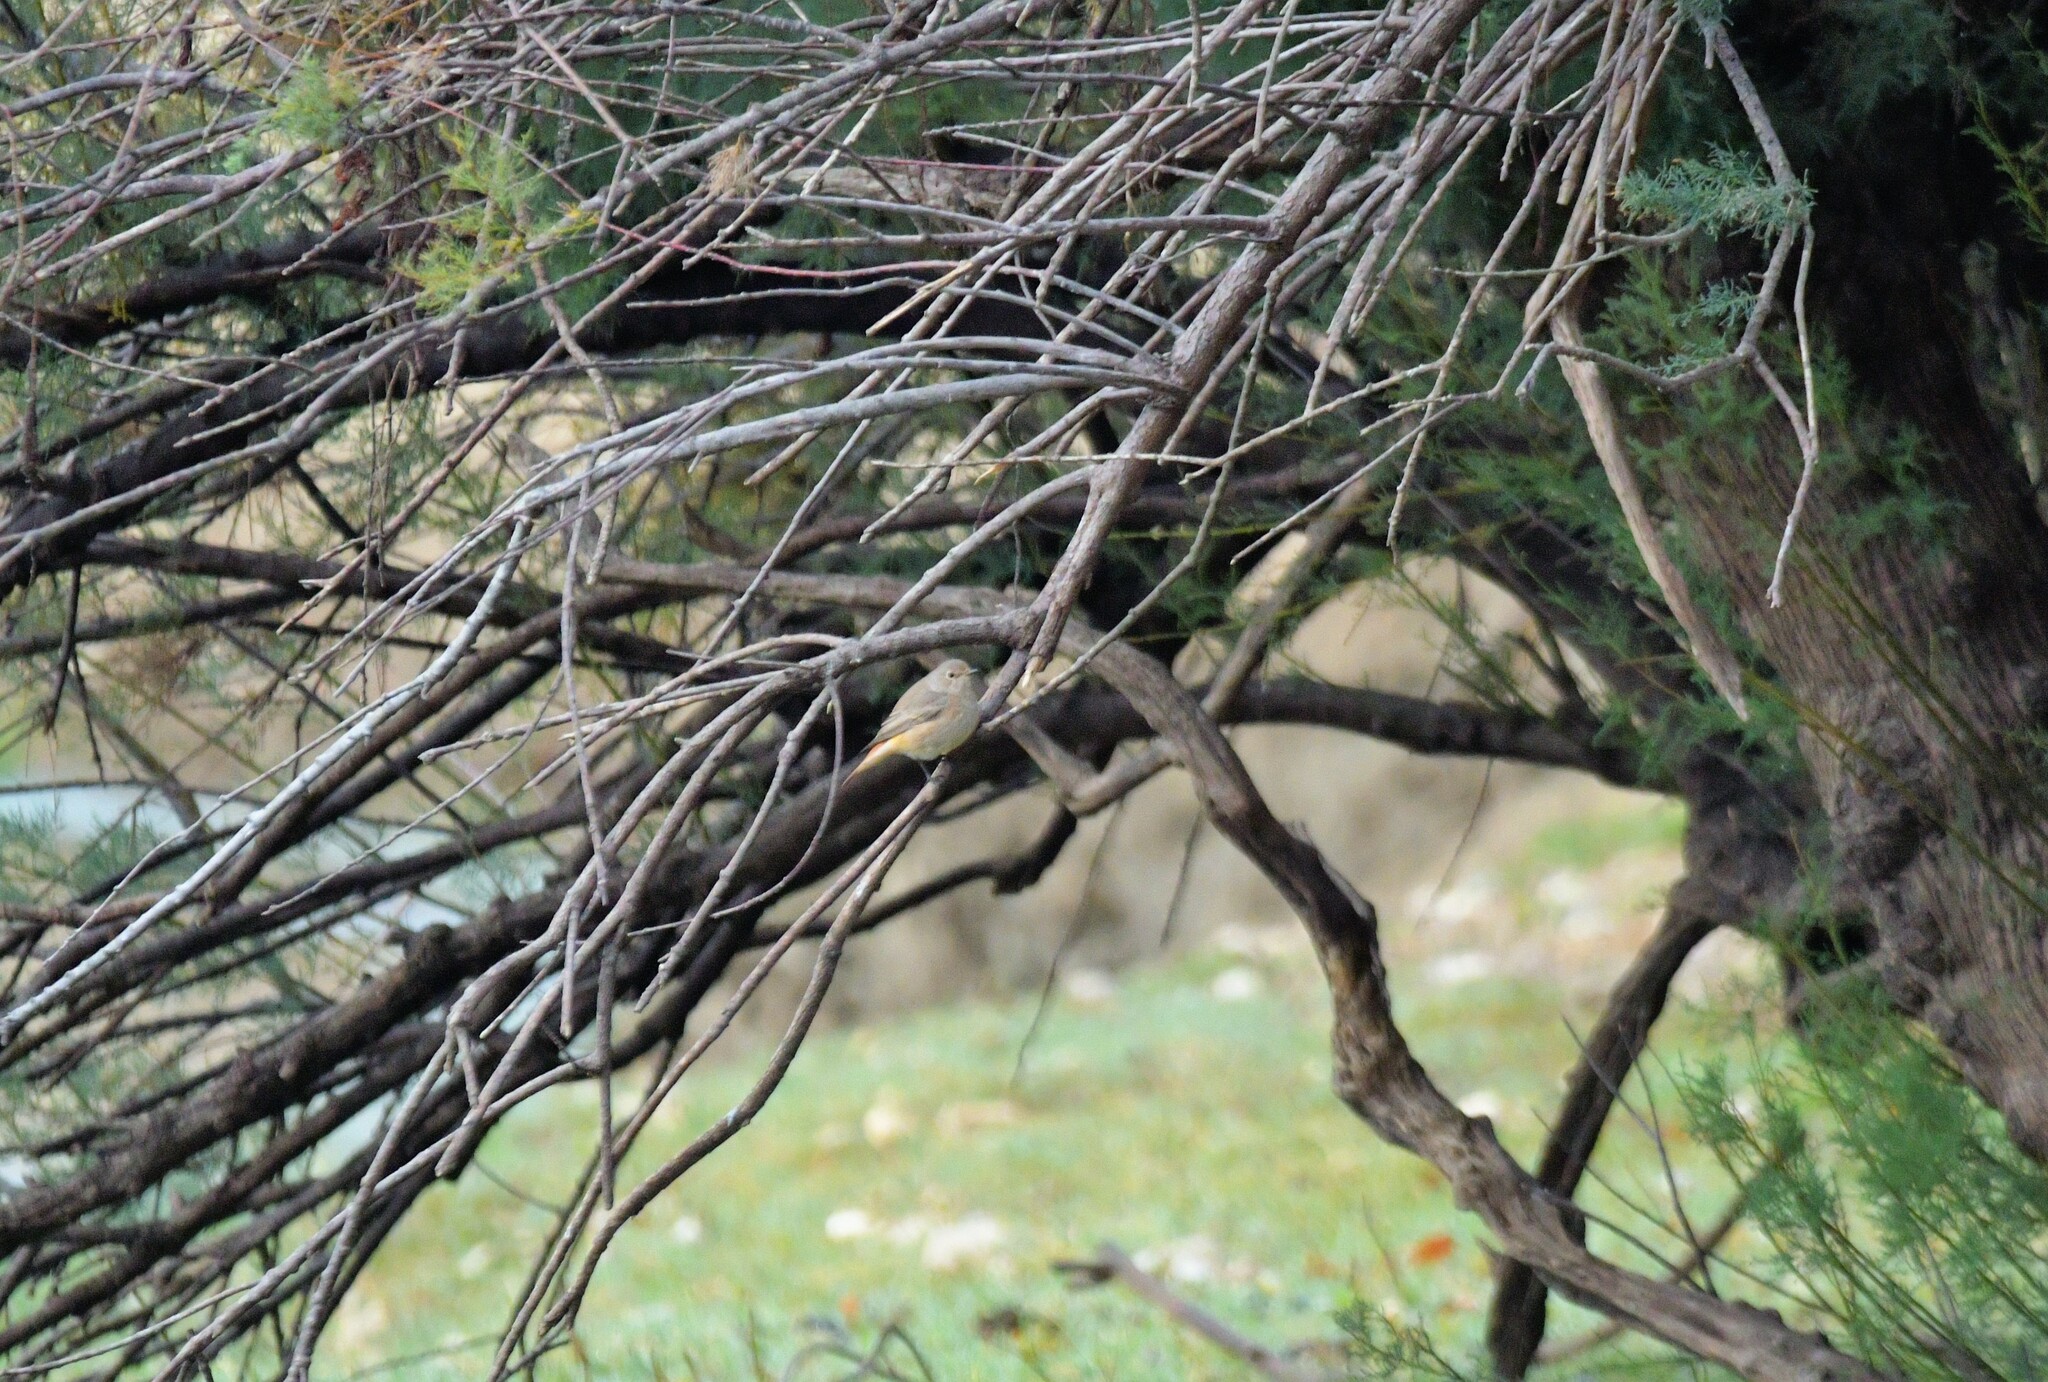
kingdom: Animalia
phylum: Chordata
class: Aves
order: Passeriformes
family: Muscicapidae
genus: Phoenicurus
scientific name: Phoenicurus phoenicurus
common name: Common redstart
